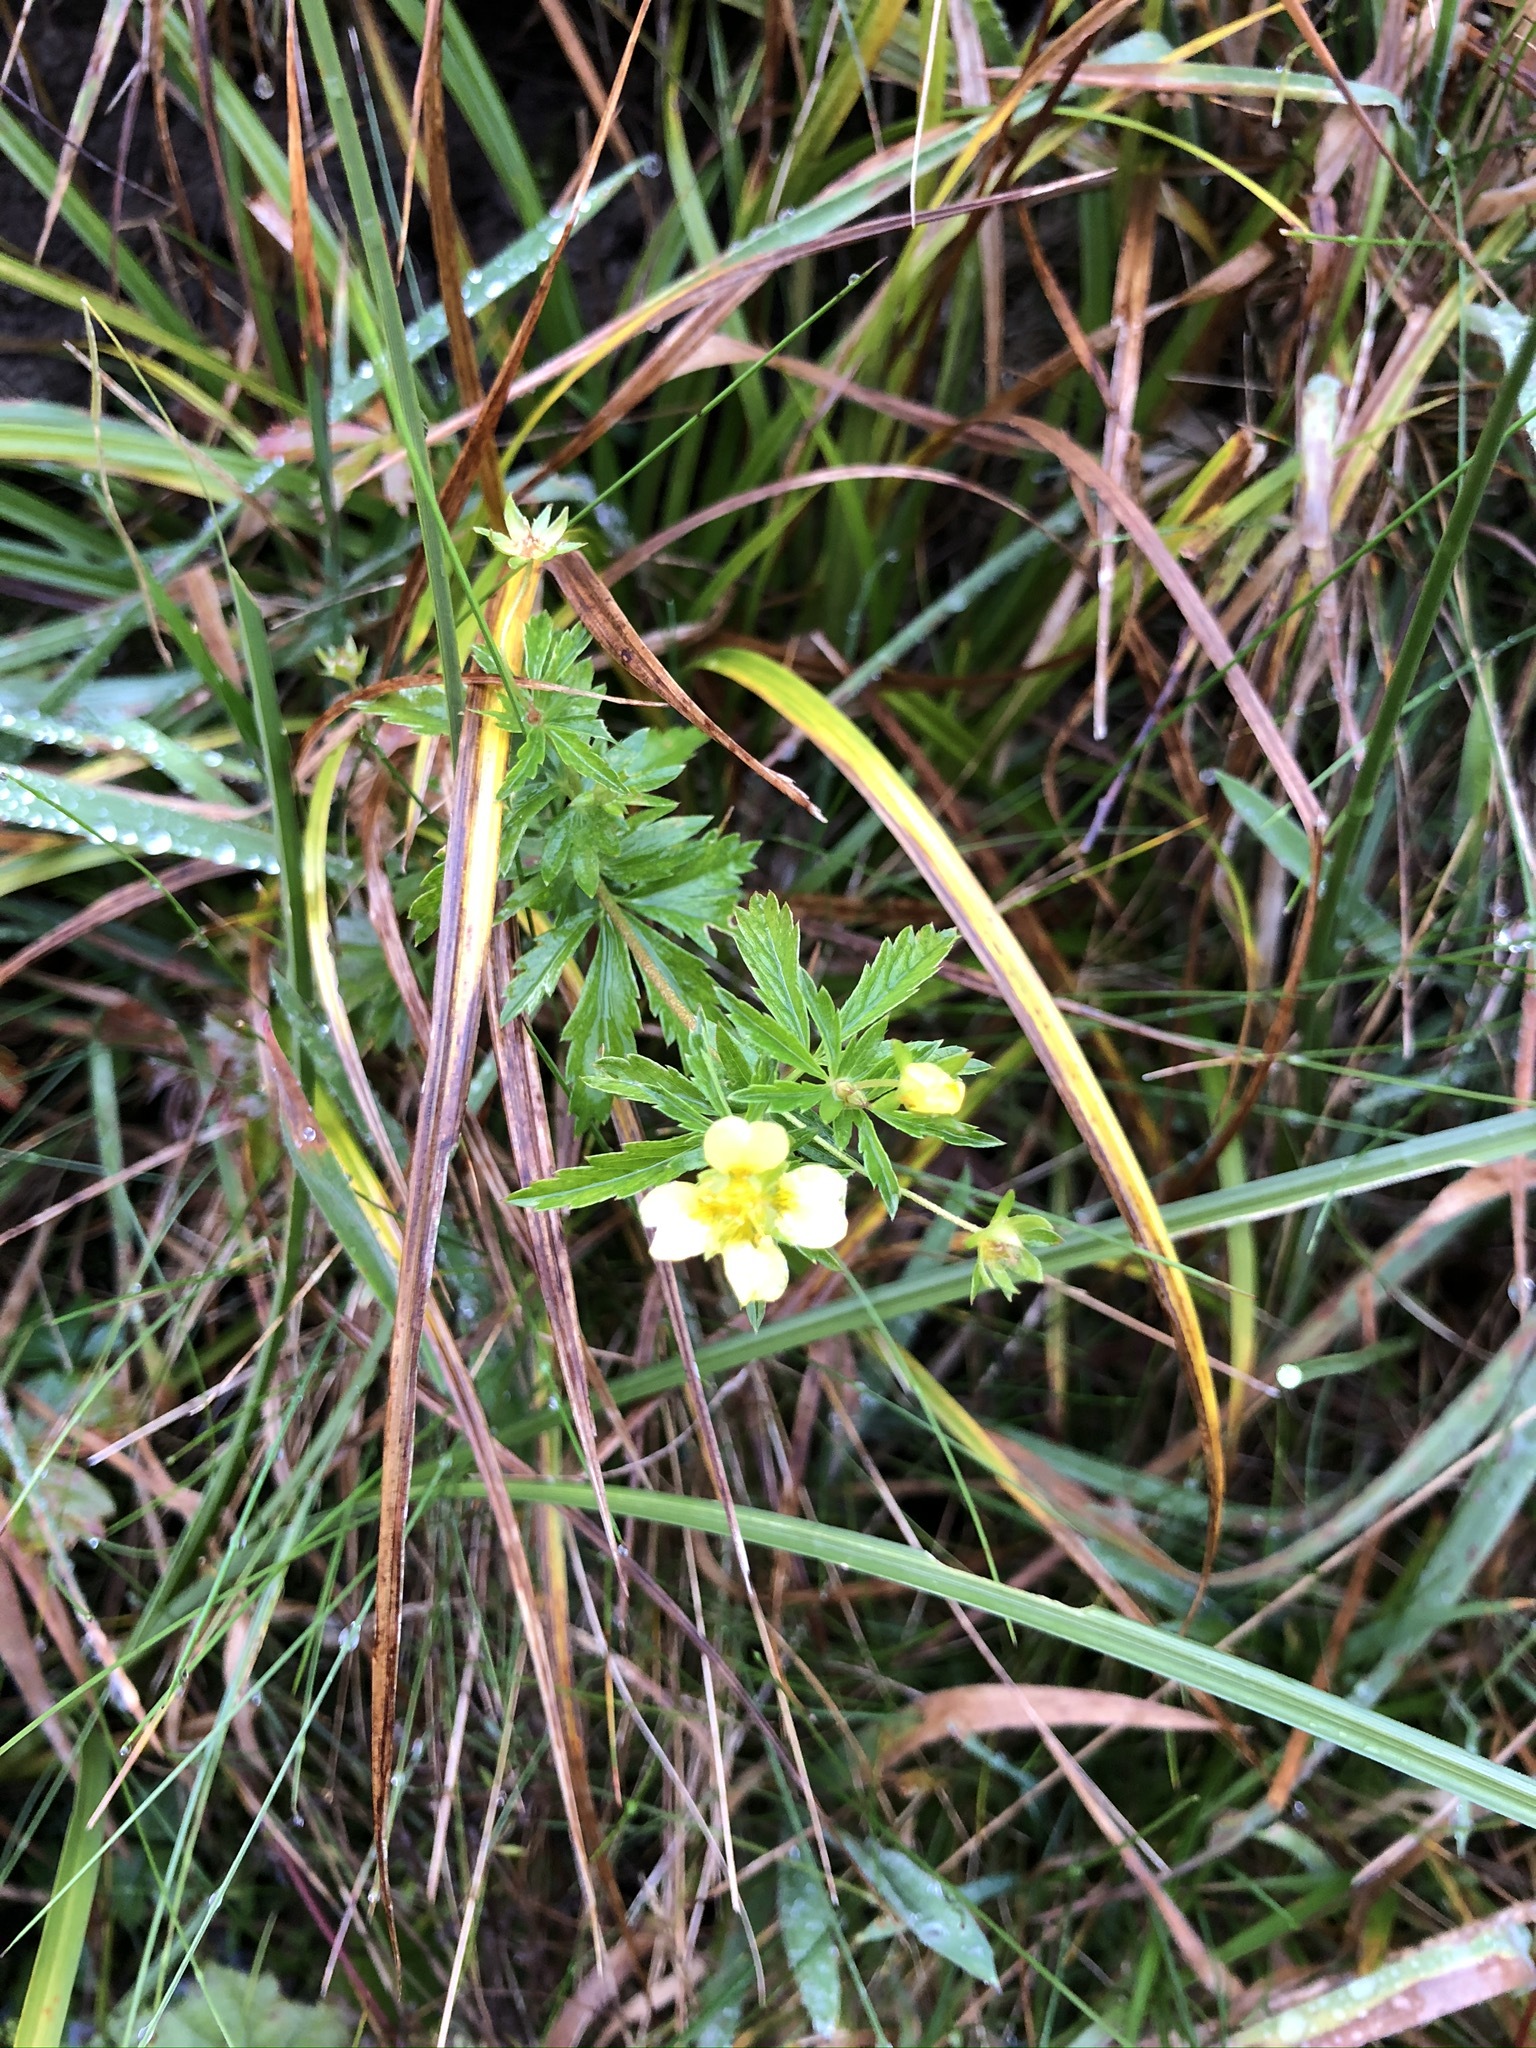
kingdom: Plantae
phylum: Tracheophyta
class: Magnoliopsida
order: Rosales
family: Rosaceae
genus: Potentilla
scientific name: Potentilla erecta
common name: Tormentil
